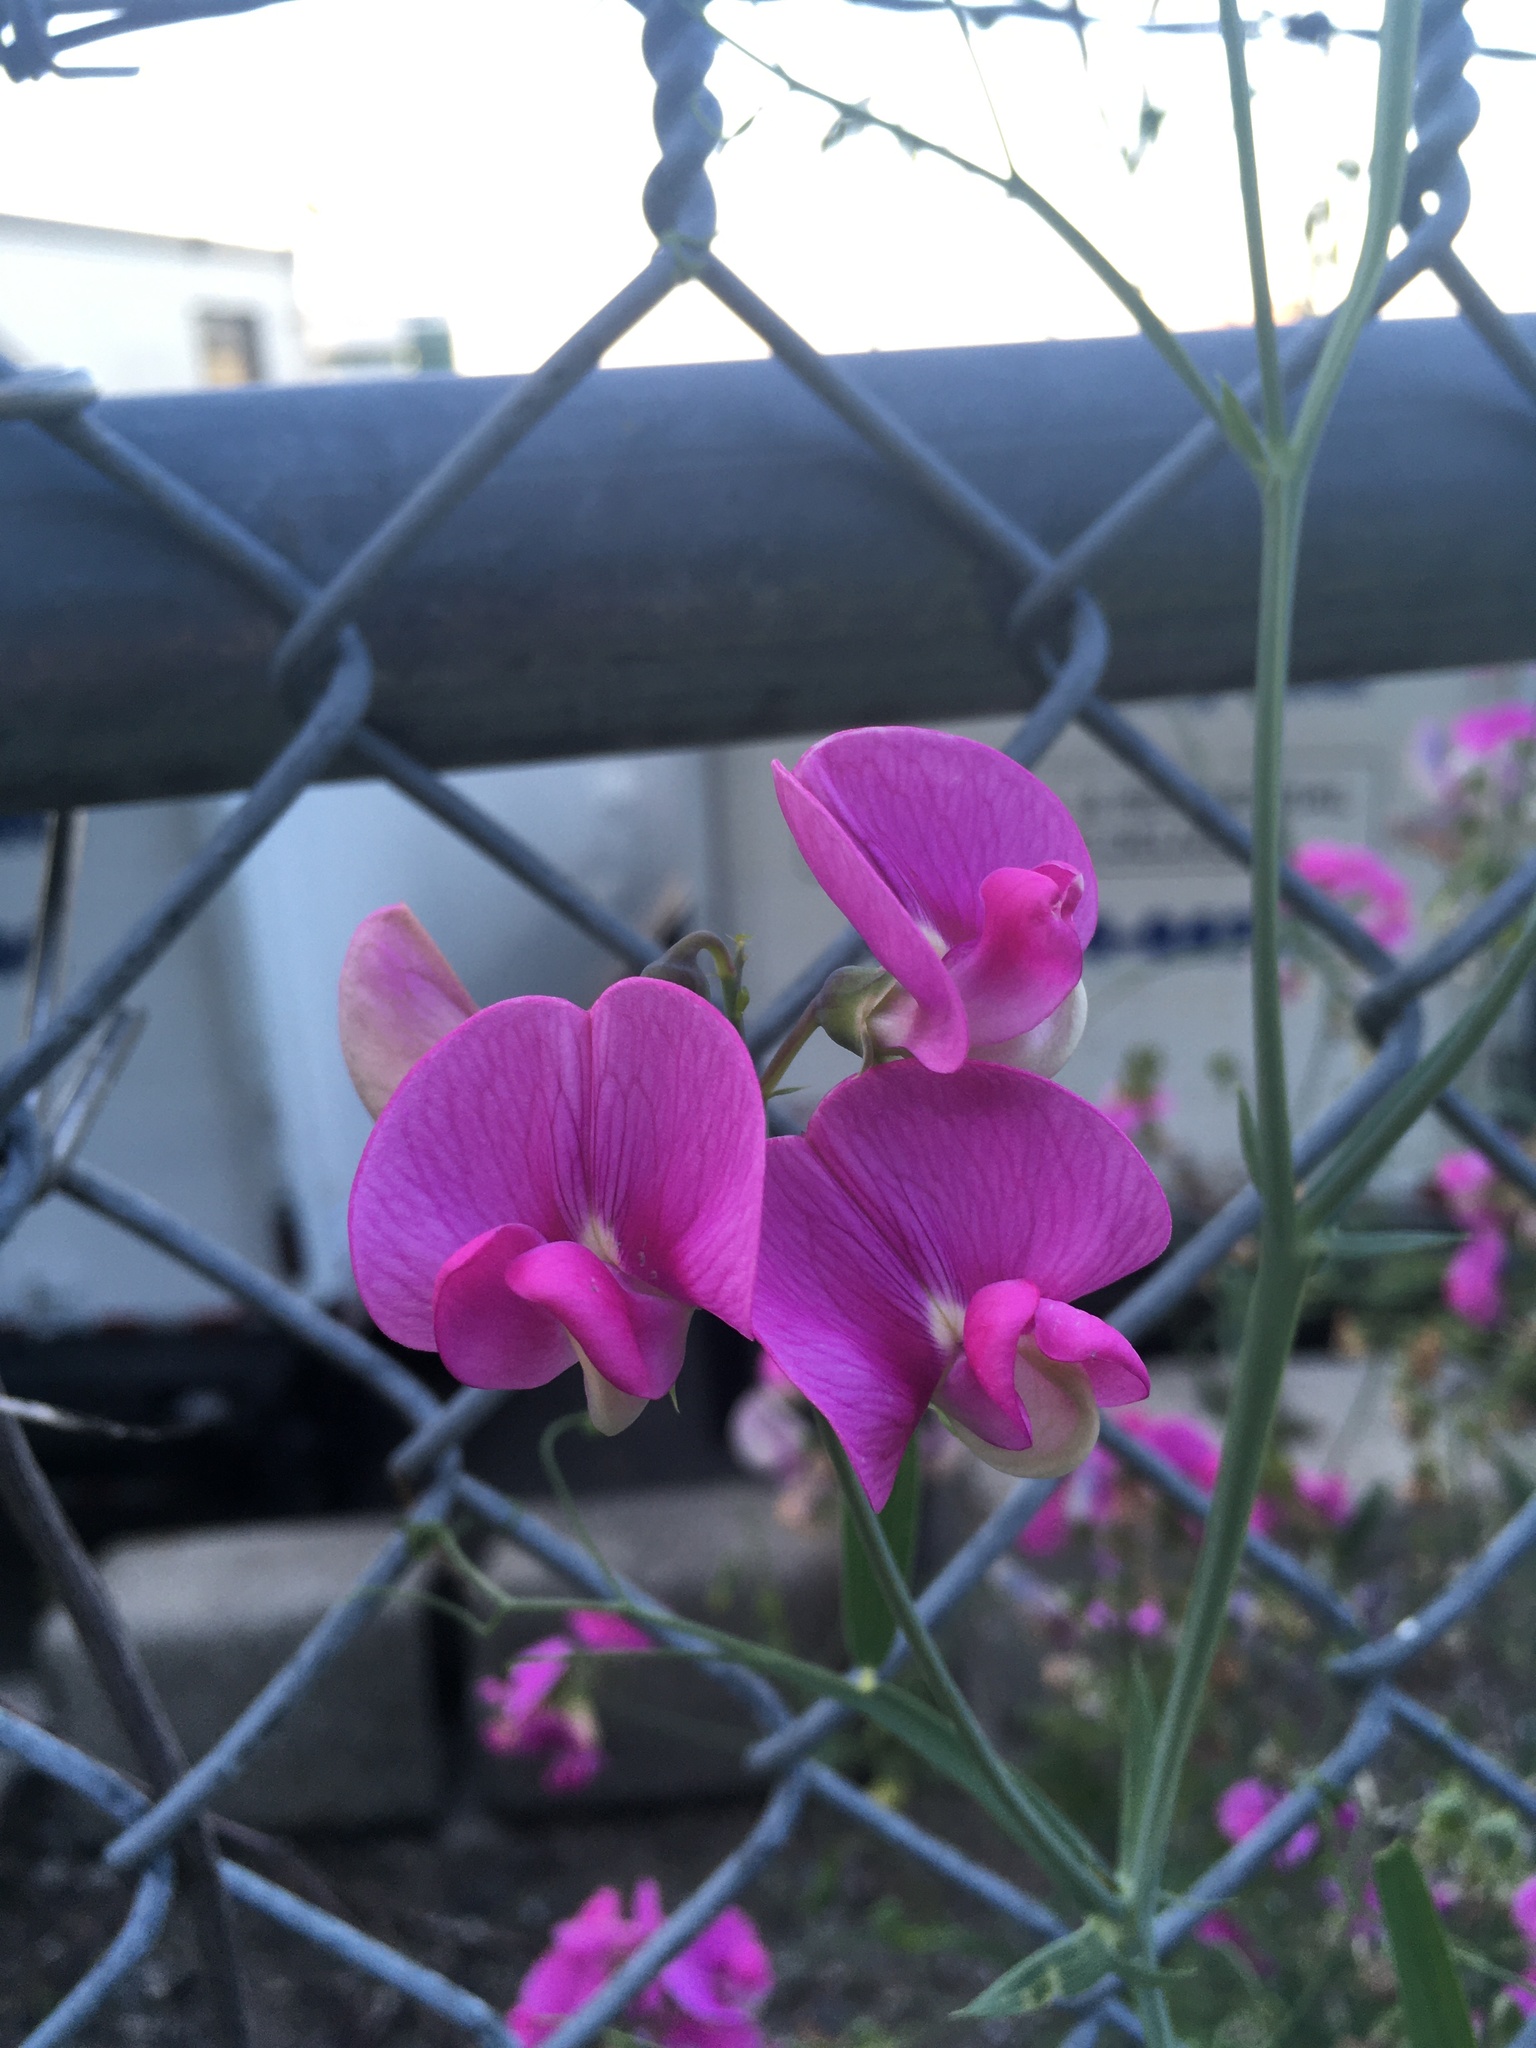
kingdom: Plantae
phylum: Tracheophyta
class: Magnoliopsida
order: Fabales
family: Fabaceae
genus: Lathyrus
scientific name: Lathyrus latifolius
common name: Perennial pea
